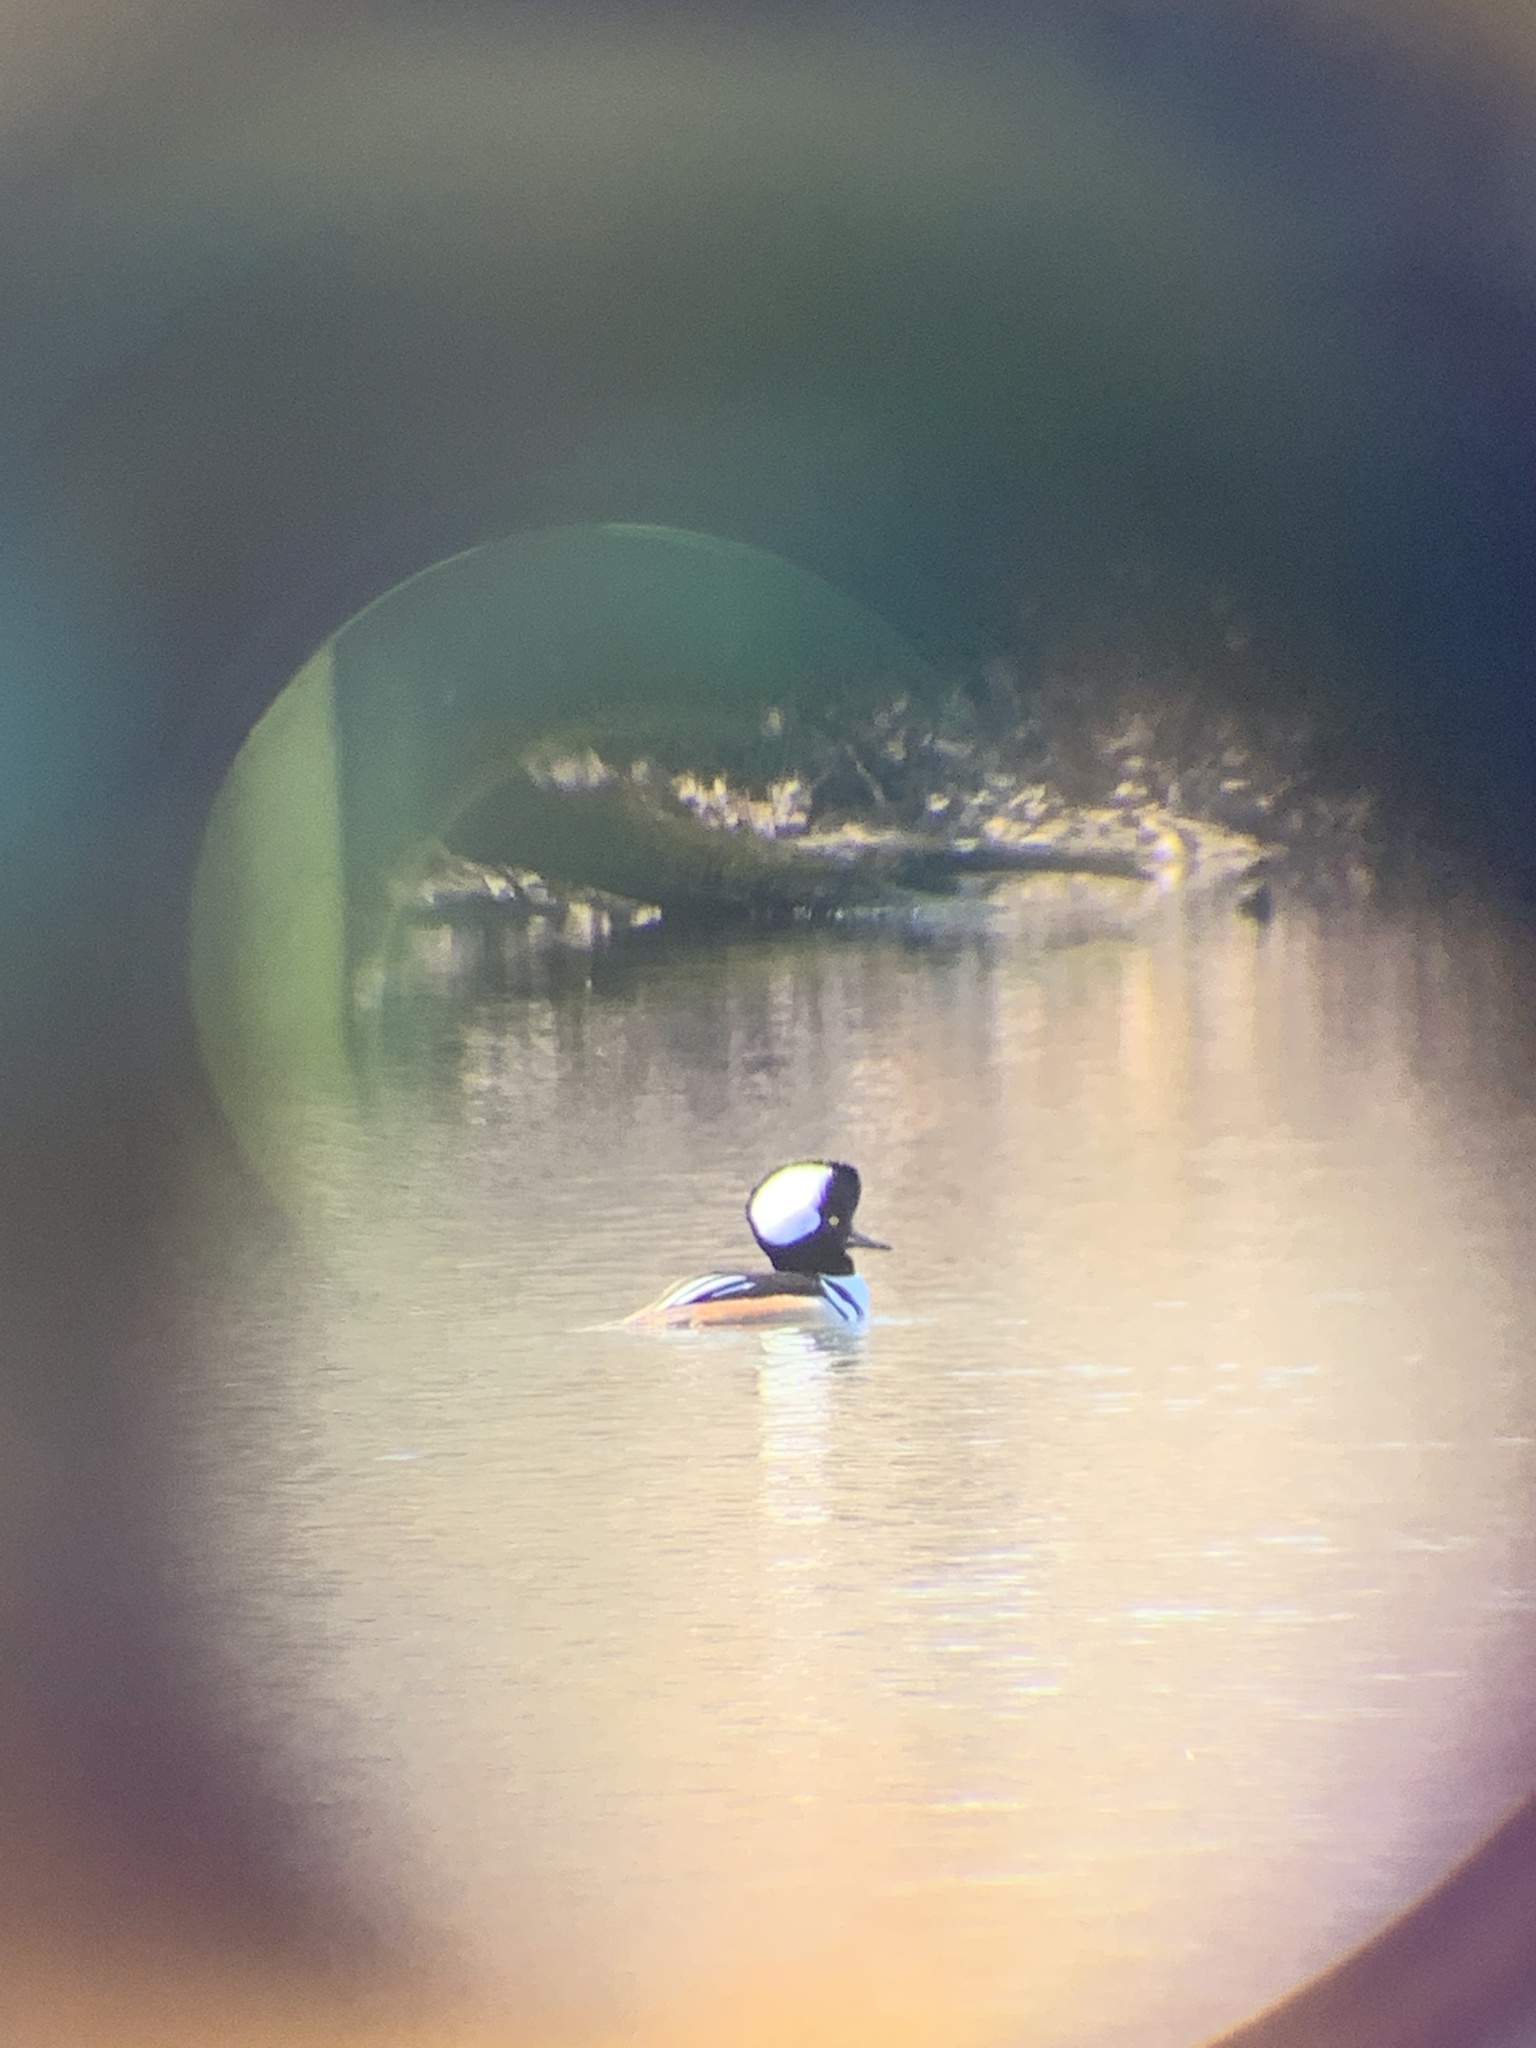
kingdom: Animalia
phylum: Chordata
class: Aves
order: Anseriformes
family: Anatidae
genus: Lophodytes
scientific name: Lophodytes cucullatus
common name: Hooded merganser
